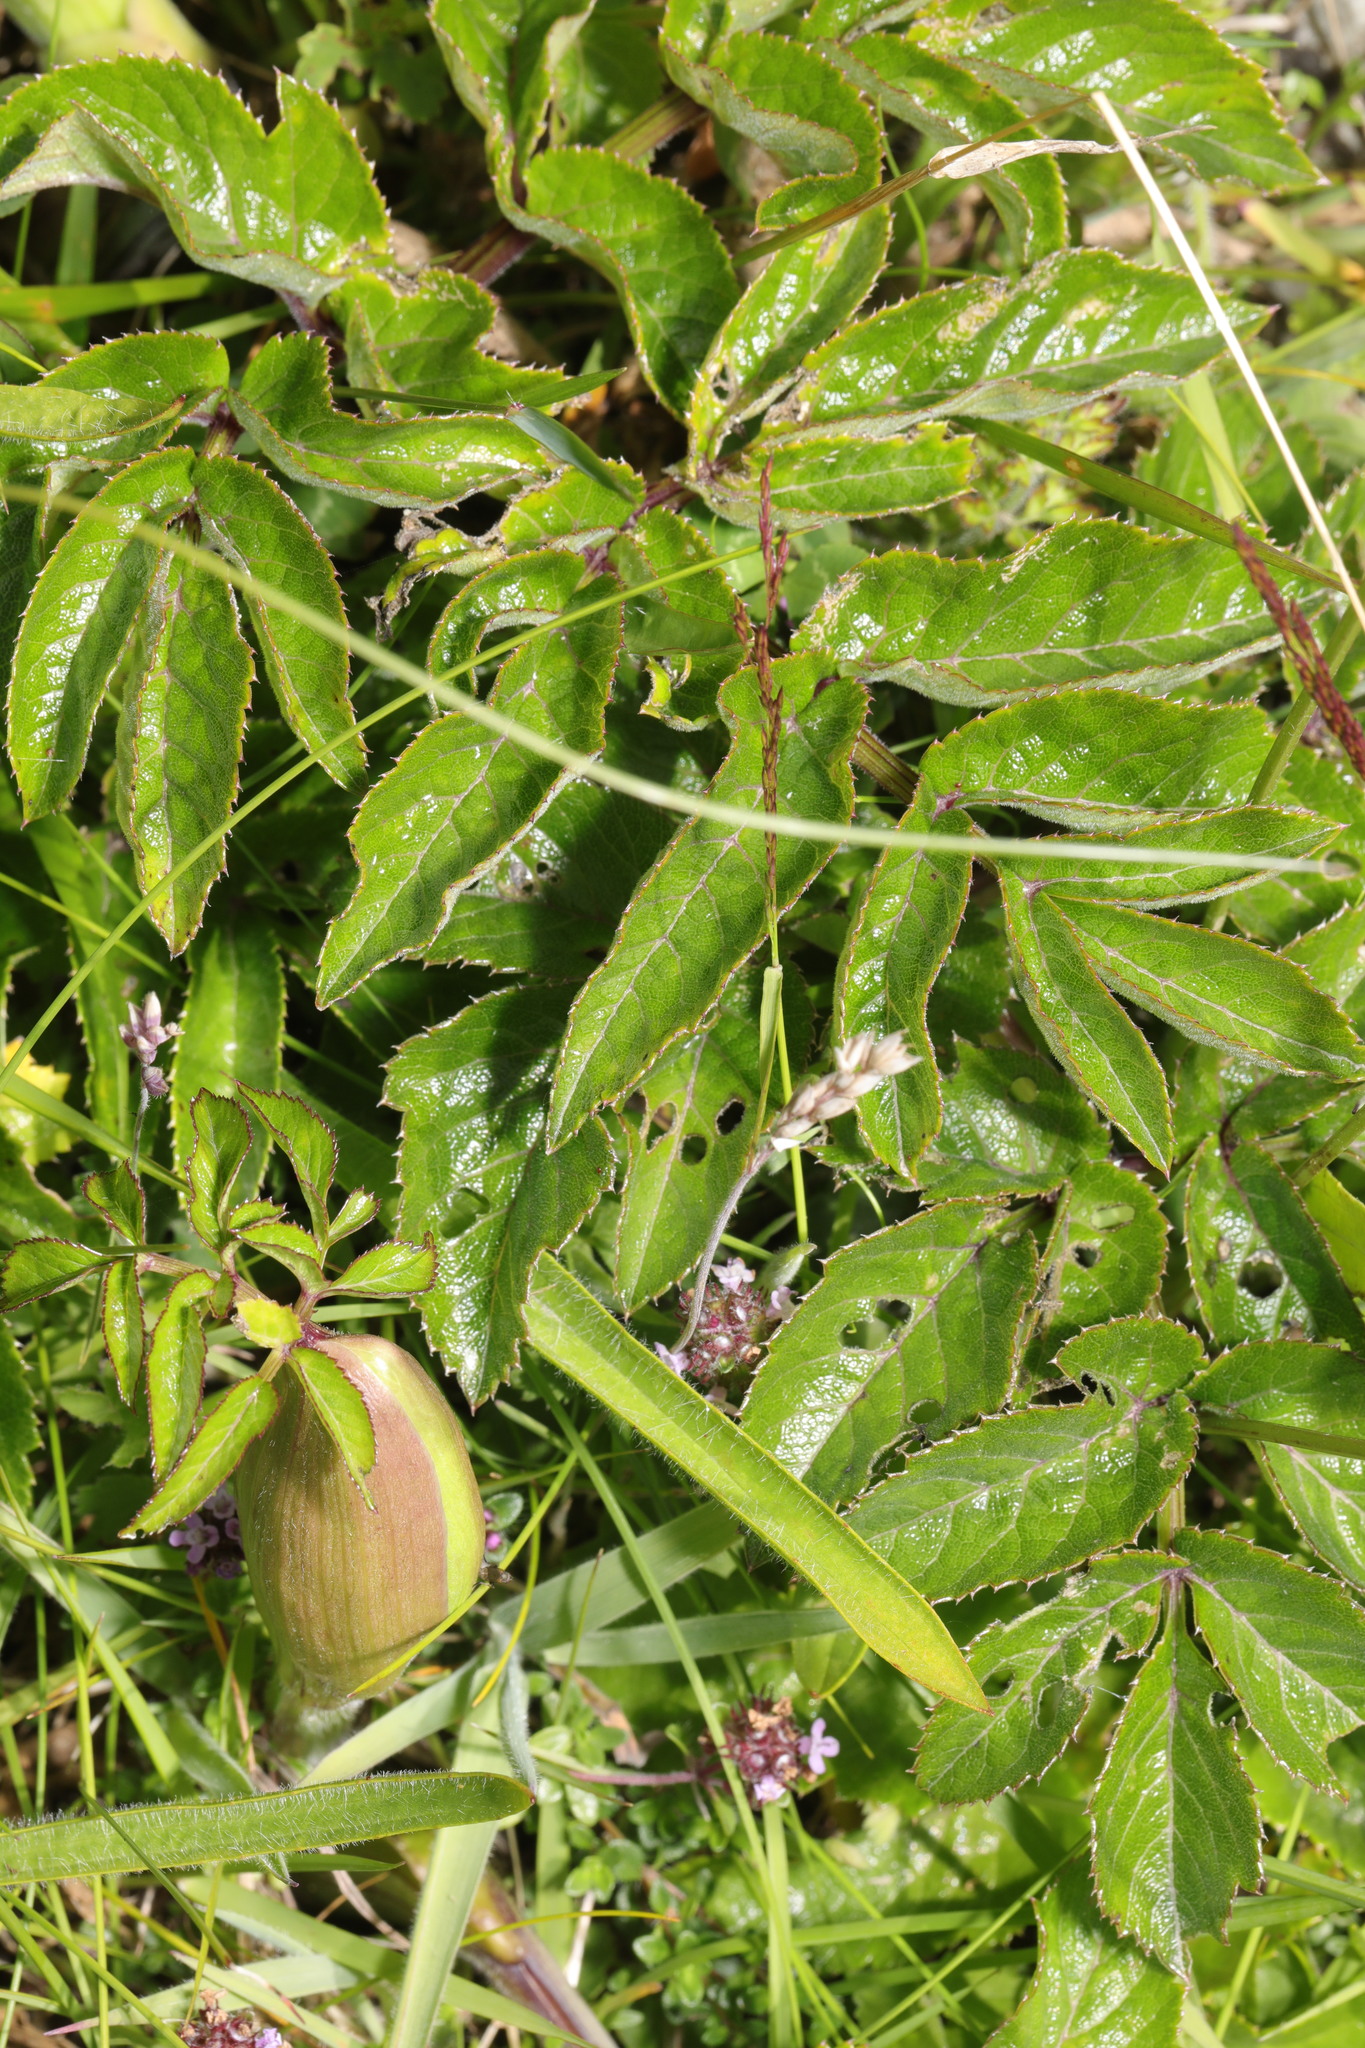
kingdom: Plantae
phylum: Tracheophyta
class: Magnoliopsida
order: Apiales
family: Apiaceae
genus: Angelica
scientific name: Angelica sylvestris
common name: Wild angelica
